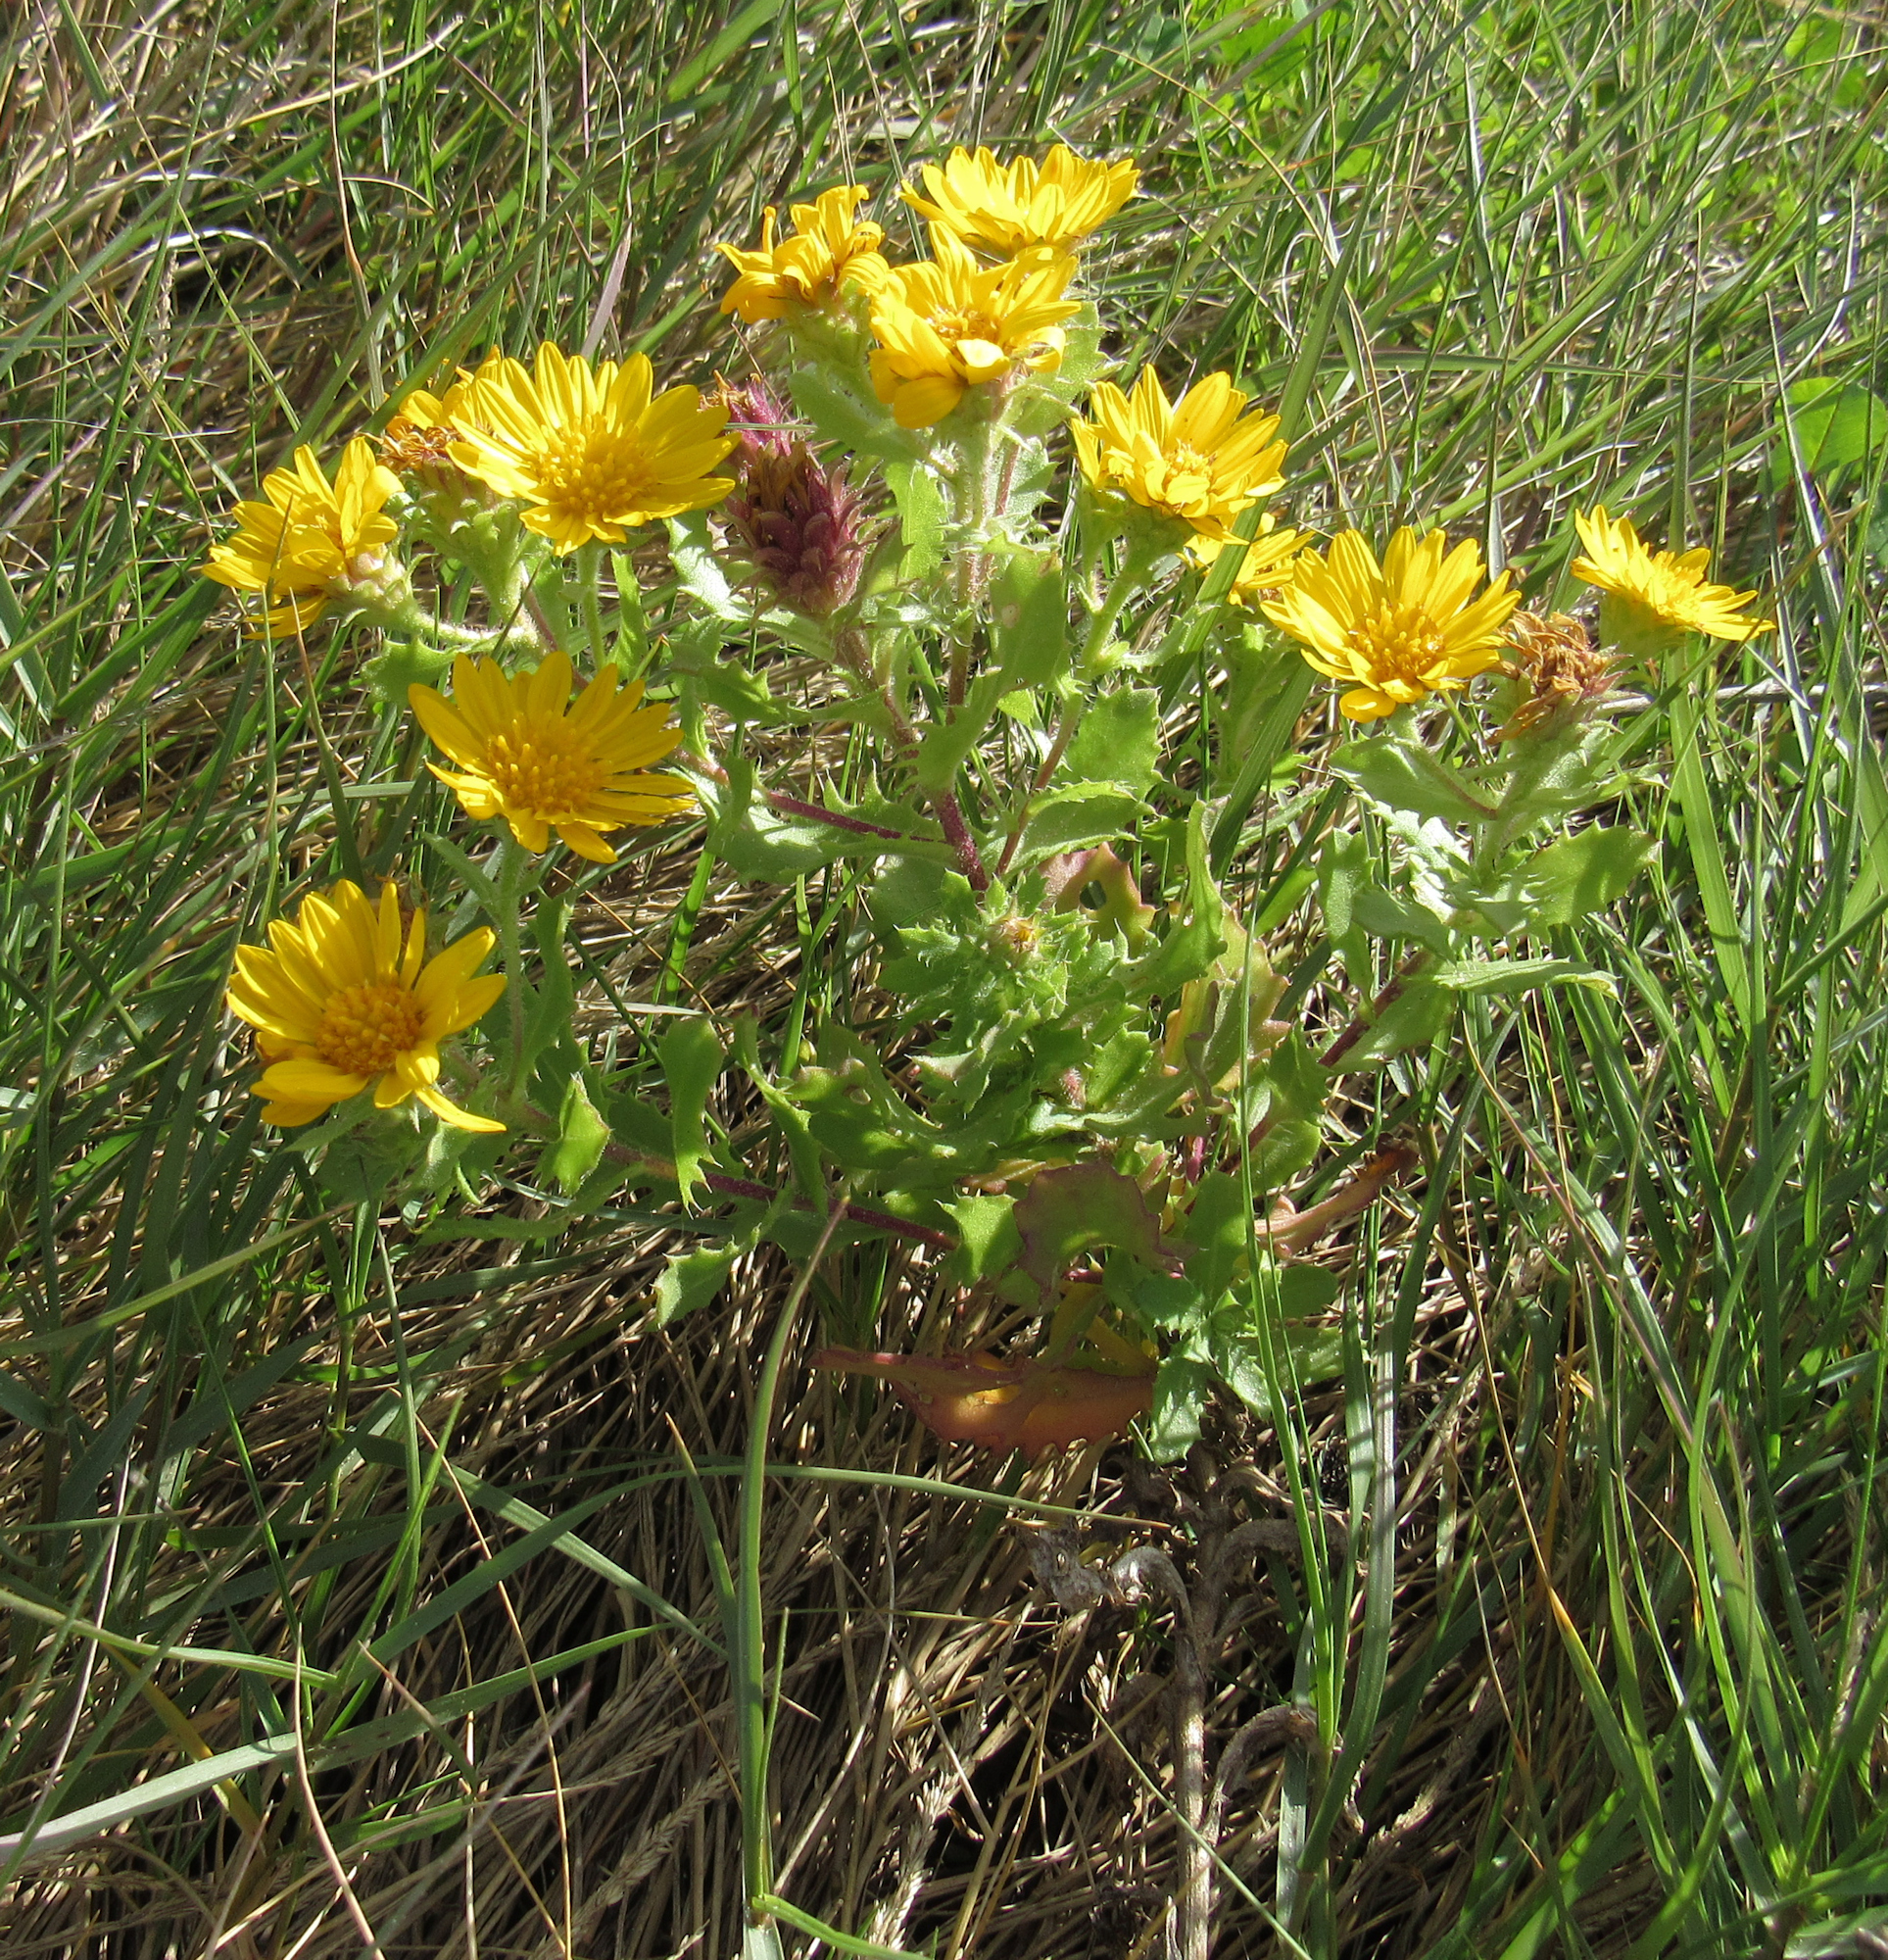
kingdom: Plantae
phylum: Tracheophyta
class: Magnoliopsida
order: Asterales
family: Asteraceae
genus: Rayjacksonia
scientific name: Rayjacksonia phyllocephala
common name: Gulf coast camphor daisy
